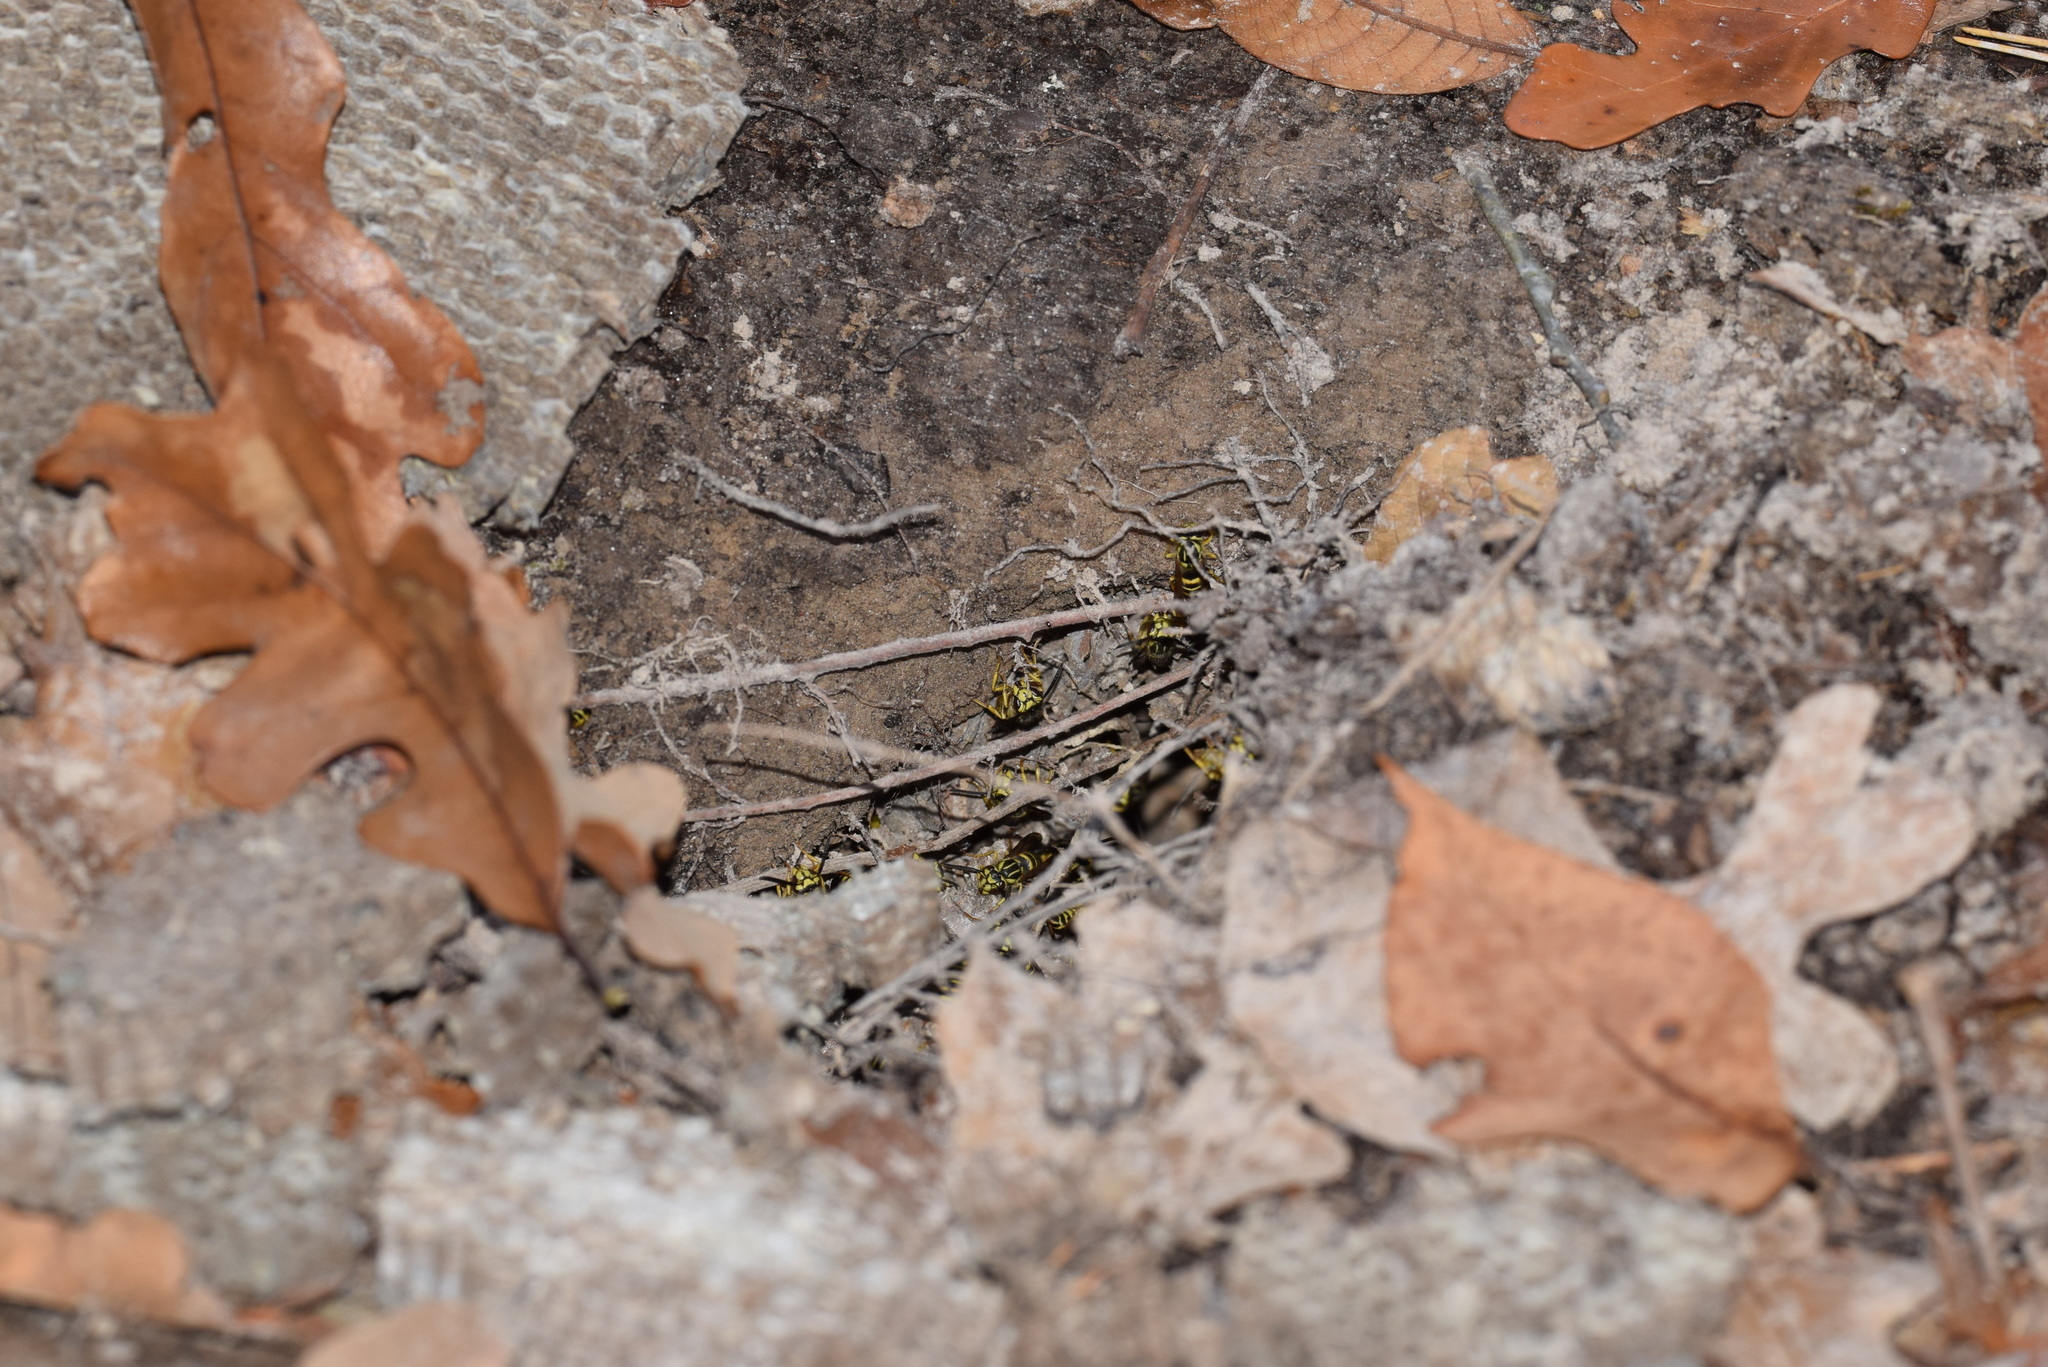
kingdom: Animalia
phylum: Arthropoda
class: Insecta
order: Hymenoptera
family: Vespidae
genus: Vespula
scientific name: Vespula squamosa
